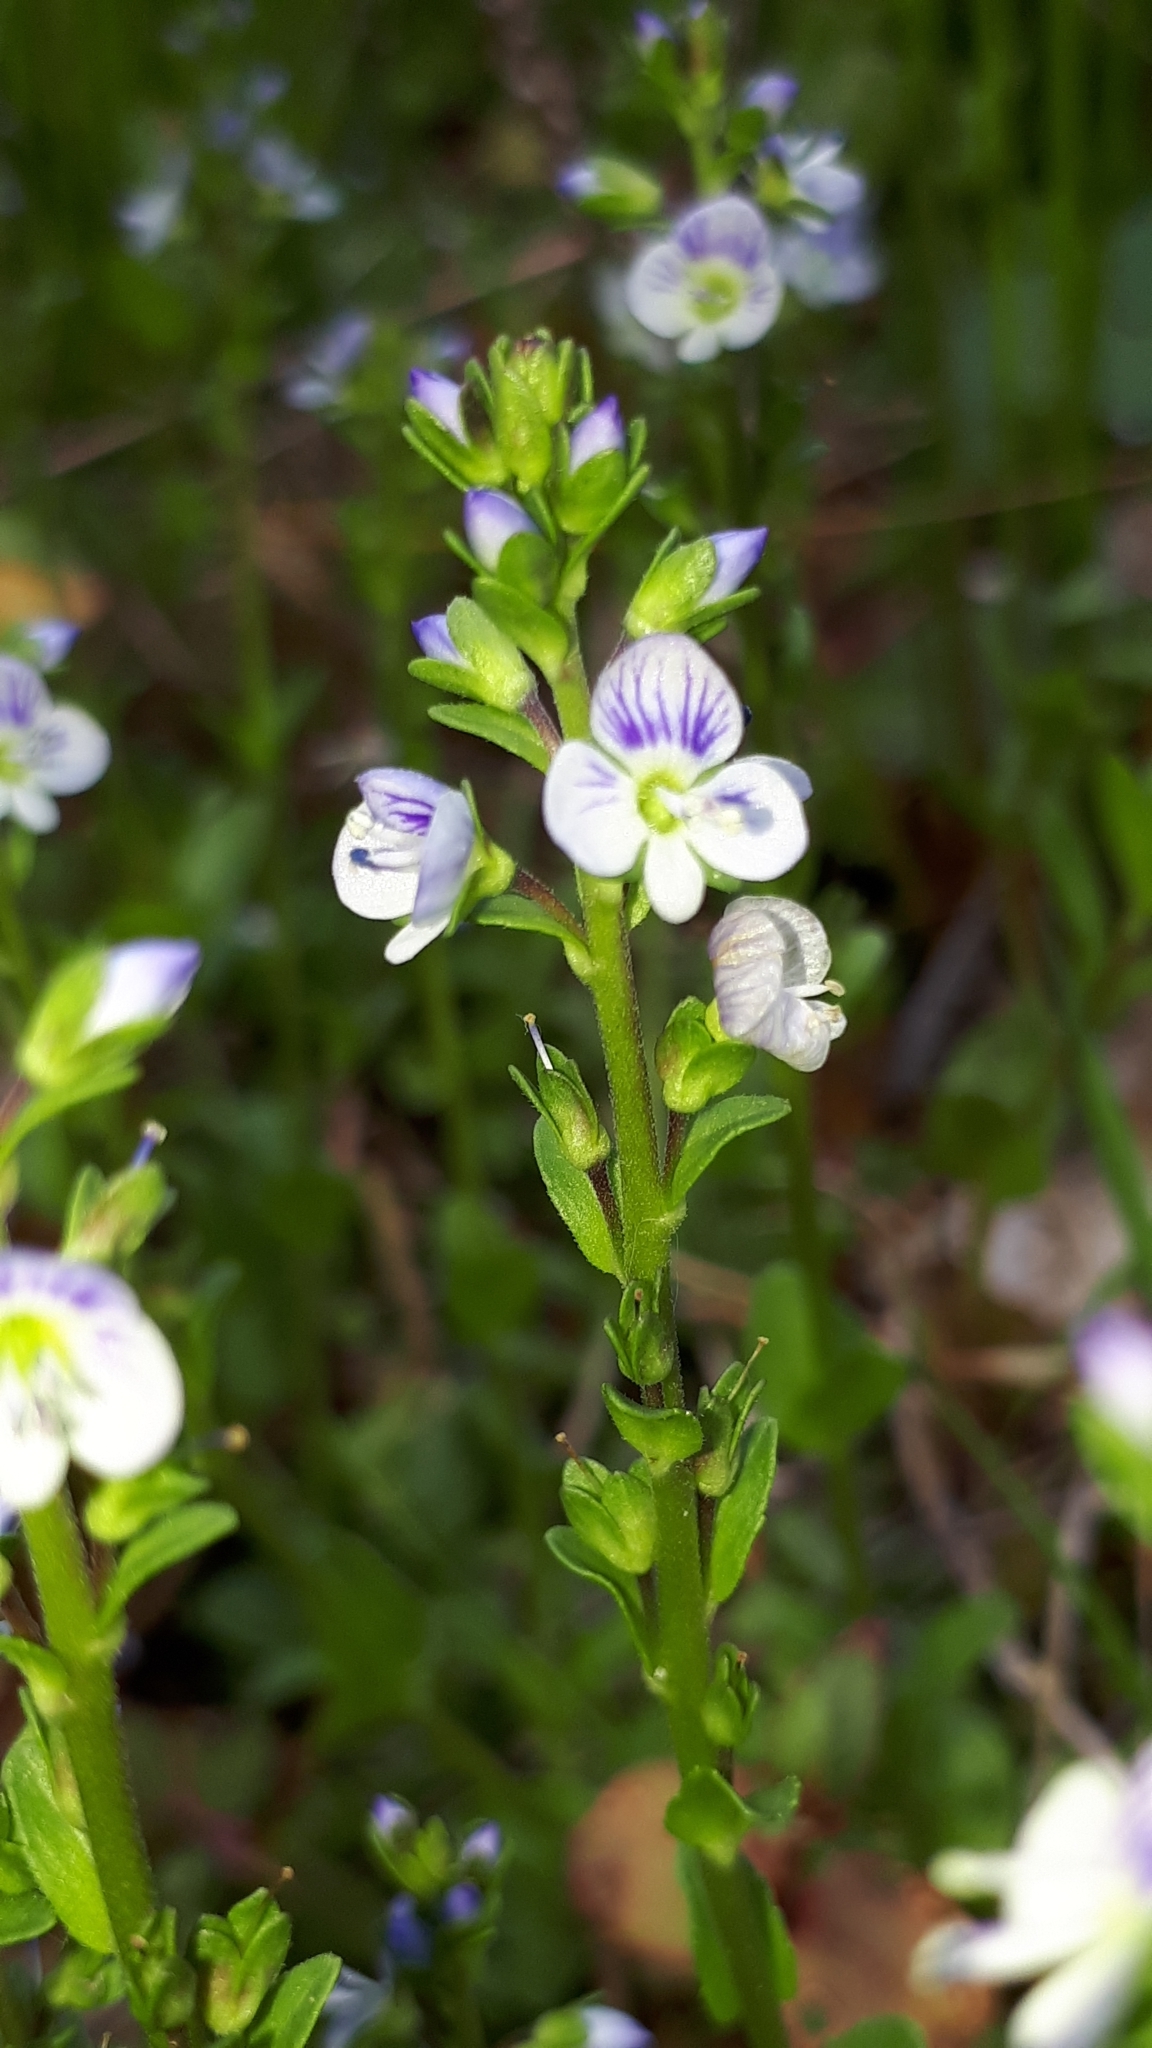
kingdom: Plantae
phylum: Tracheophyta
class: Magnoliopsida
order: Lamiales
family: Plantaginaceae
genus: Veronica
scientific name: Veronica serpyllifolia
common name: Thyme-leaved speedwell
